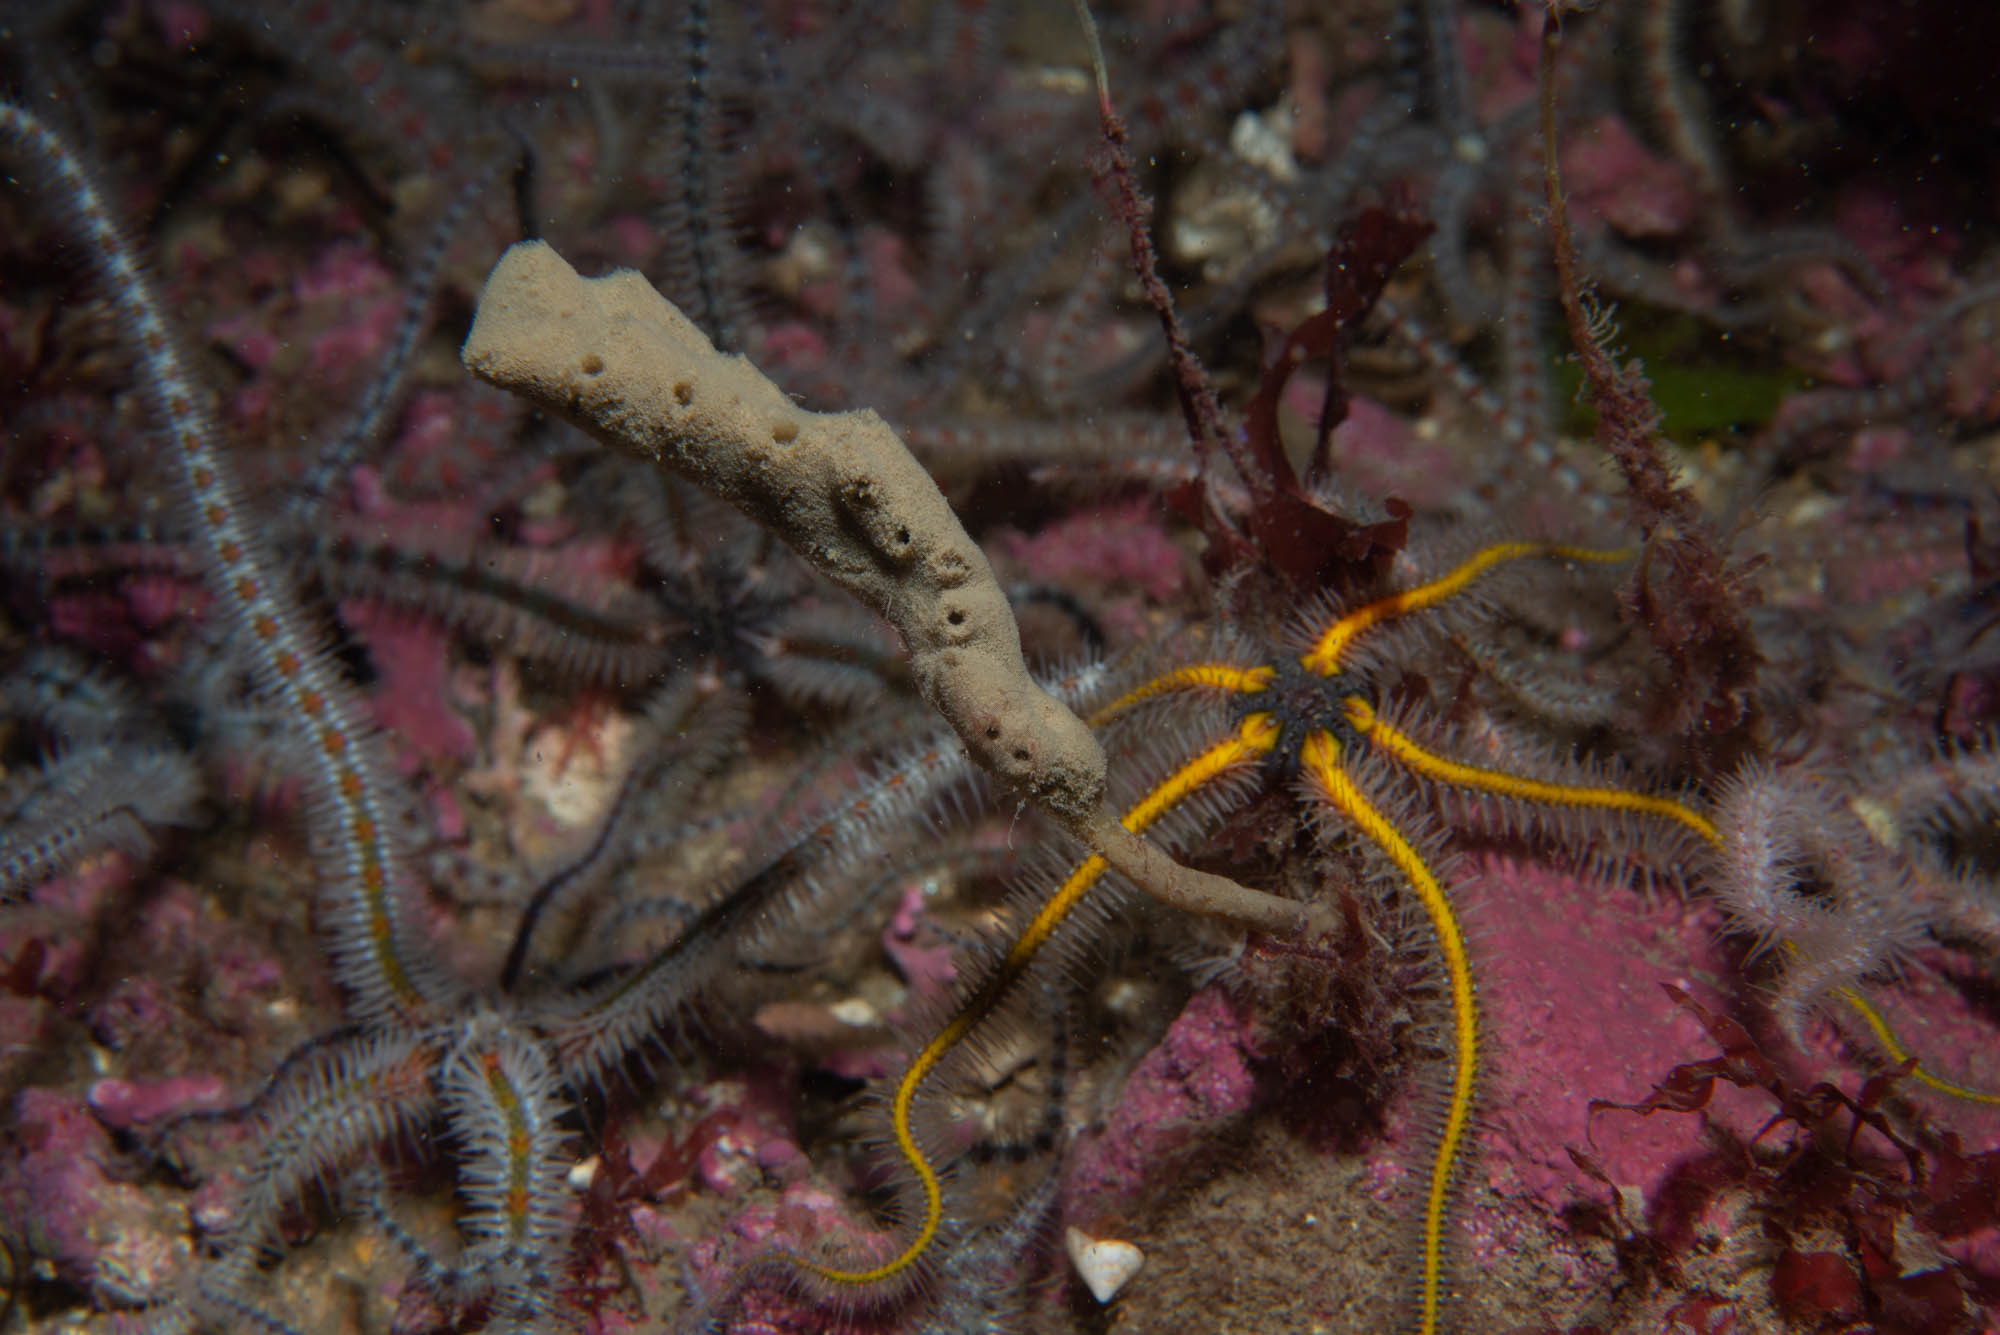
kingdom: Animalia
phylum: Porifera
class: Demospongiae
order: Haplosclerida
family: Chalinidae
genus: Haliclona
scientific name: Haliclona oculata
